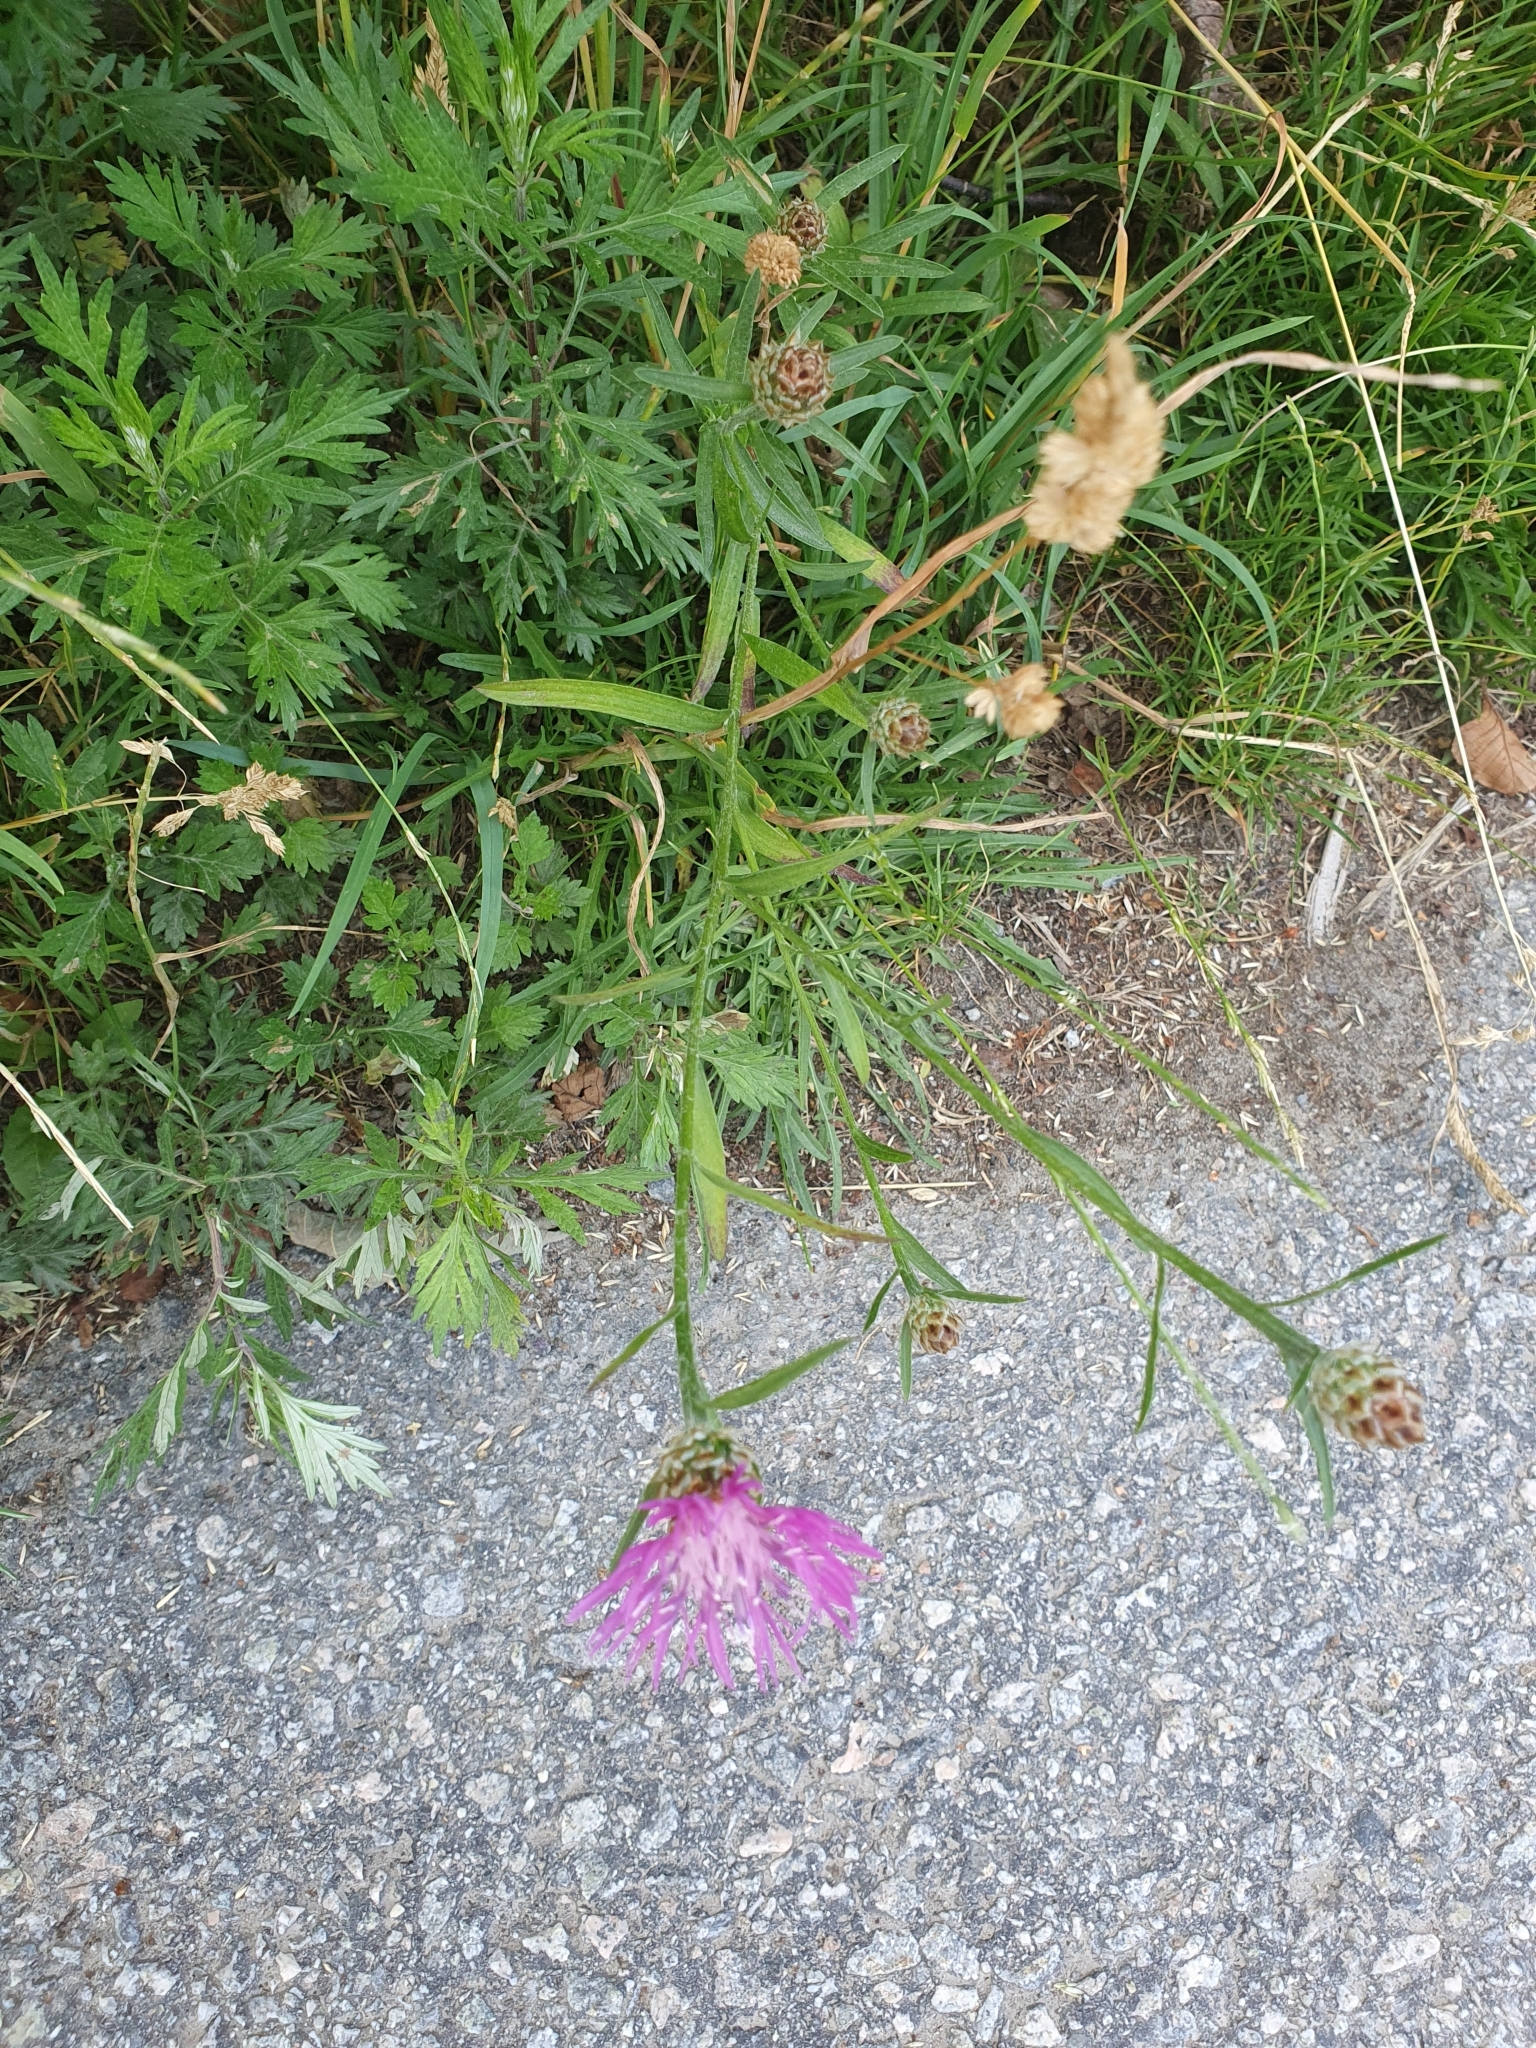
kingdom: Plantae
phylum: Tracheophyta
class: Magnoliopsida
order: Asterales
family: Asteraceae
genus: Centaurea
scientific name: Centaurea jacea
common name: Brown knapweed
